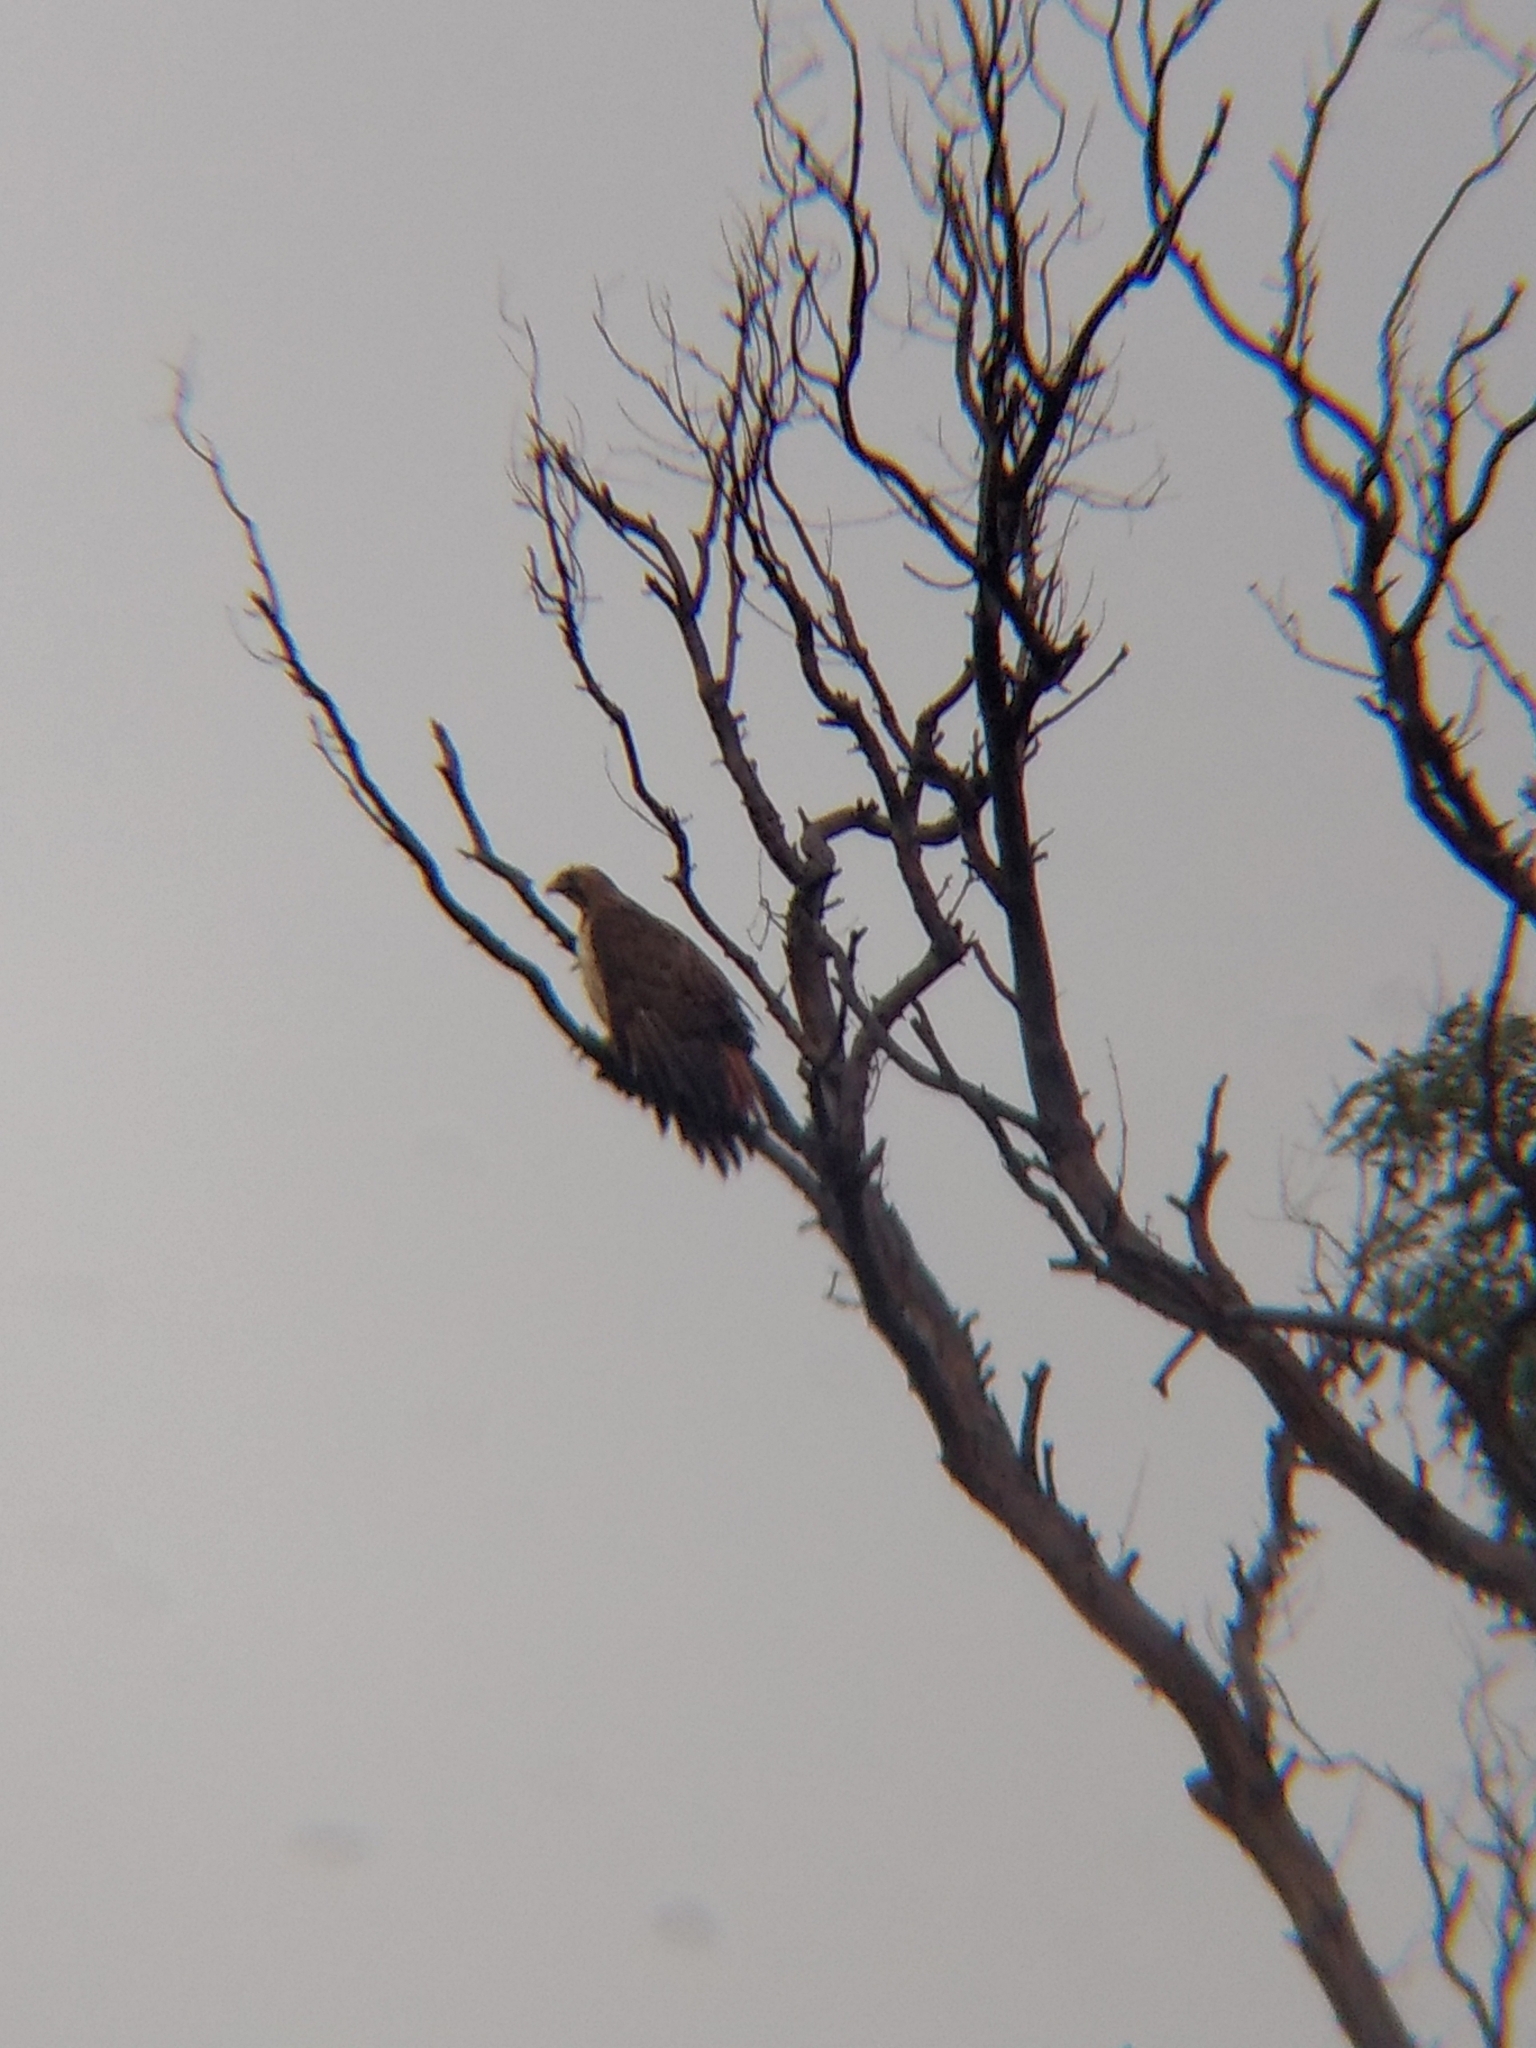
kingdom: Animalia
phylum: Chordata
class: Aves
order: Accipitriformes
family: Accipitridae
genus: Buteo
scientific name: Buteo jamaicensis
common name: Red-tailed hawk
